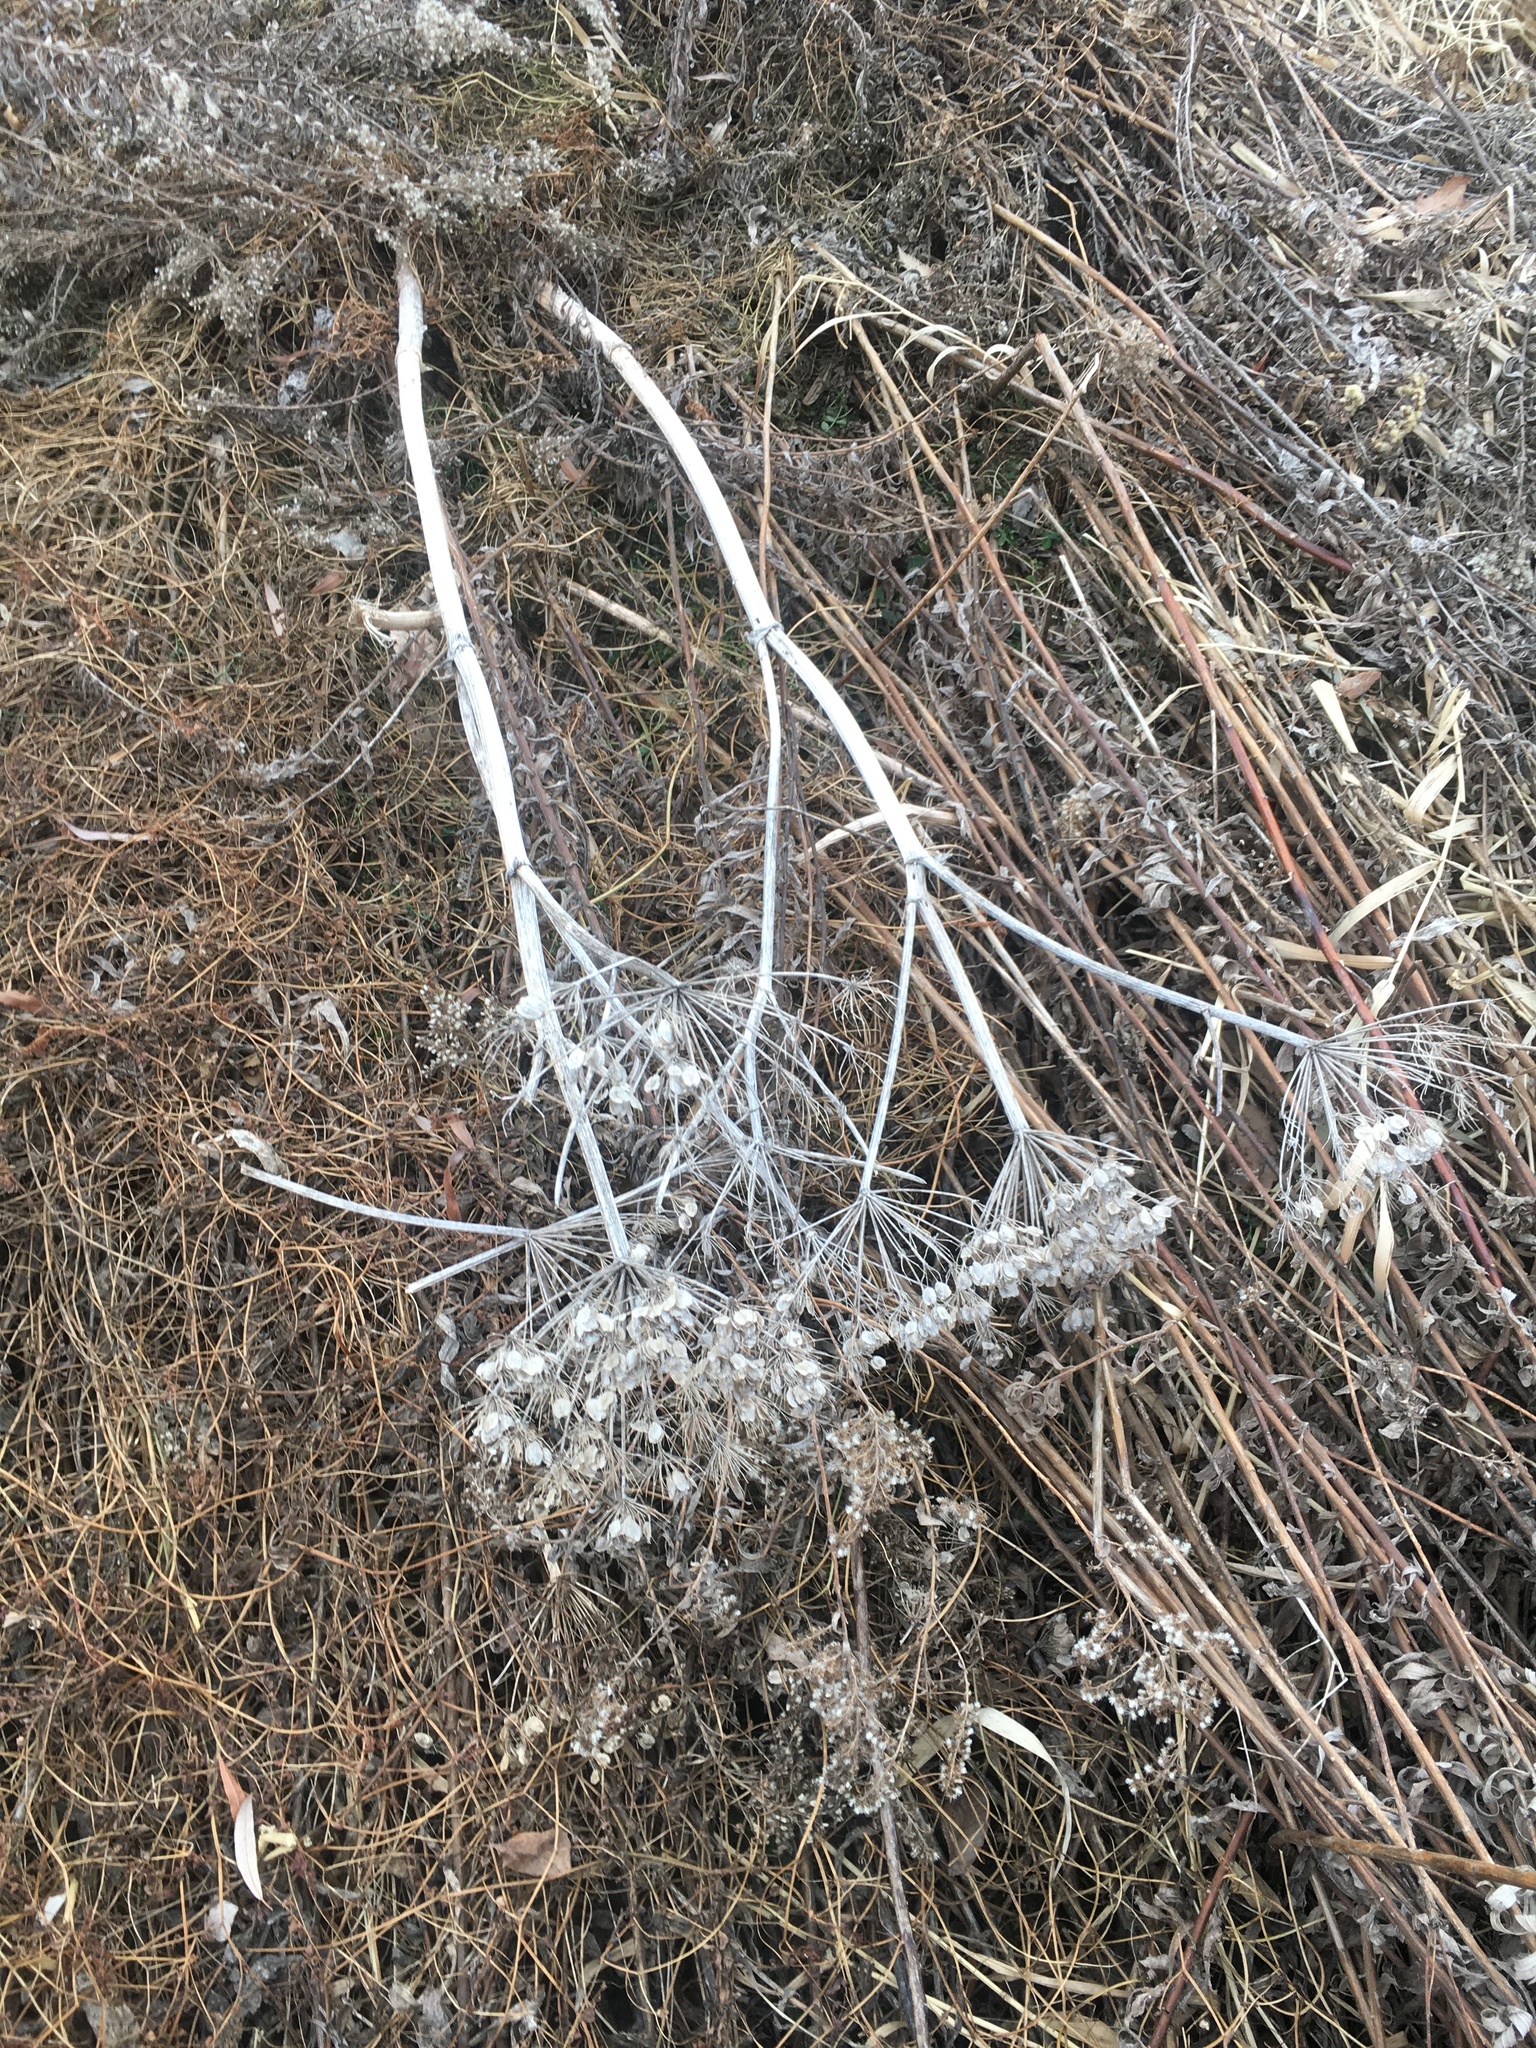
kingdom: Plantae
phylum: Tracheophyta
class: Magnoliopsida
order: Apiales
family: Apiaceae
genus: Heracleum
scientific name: Heracleum maximum
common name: American cow parsnip
